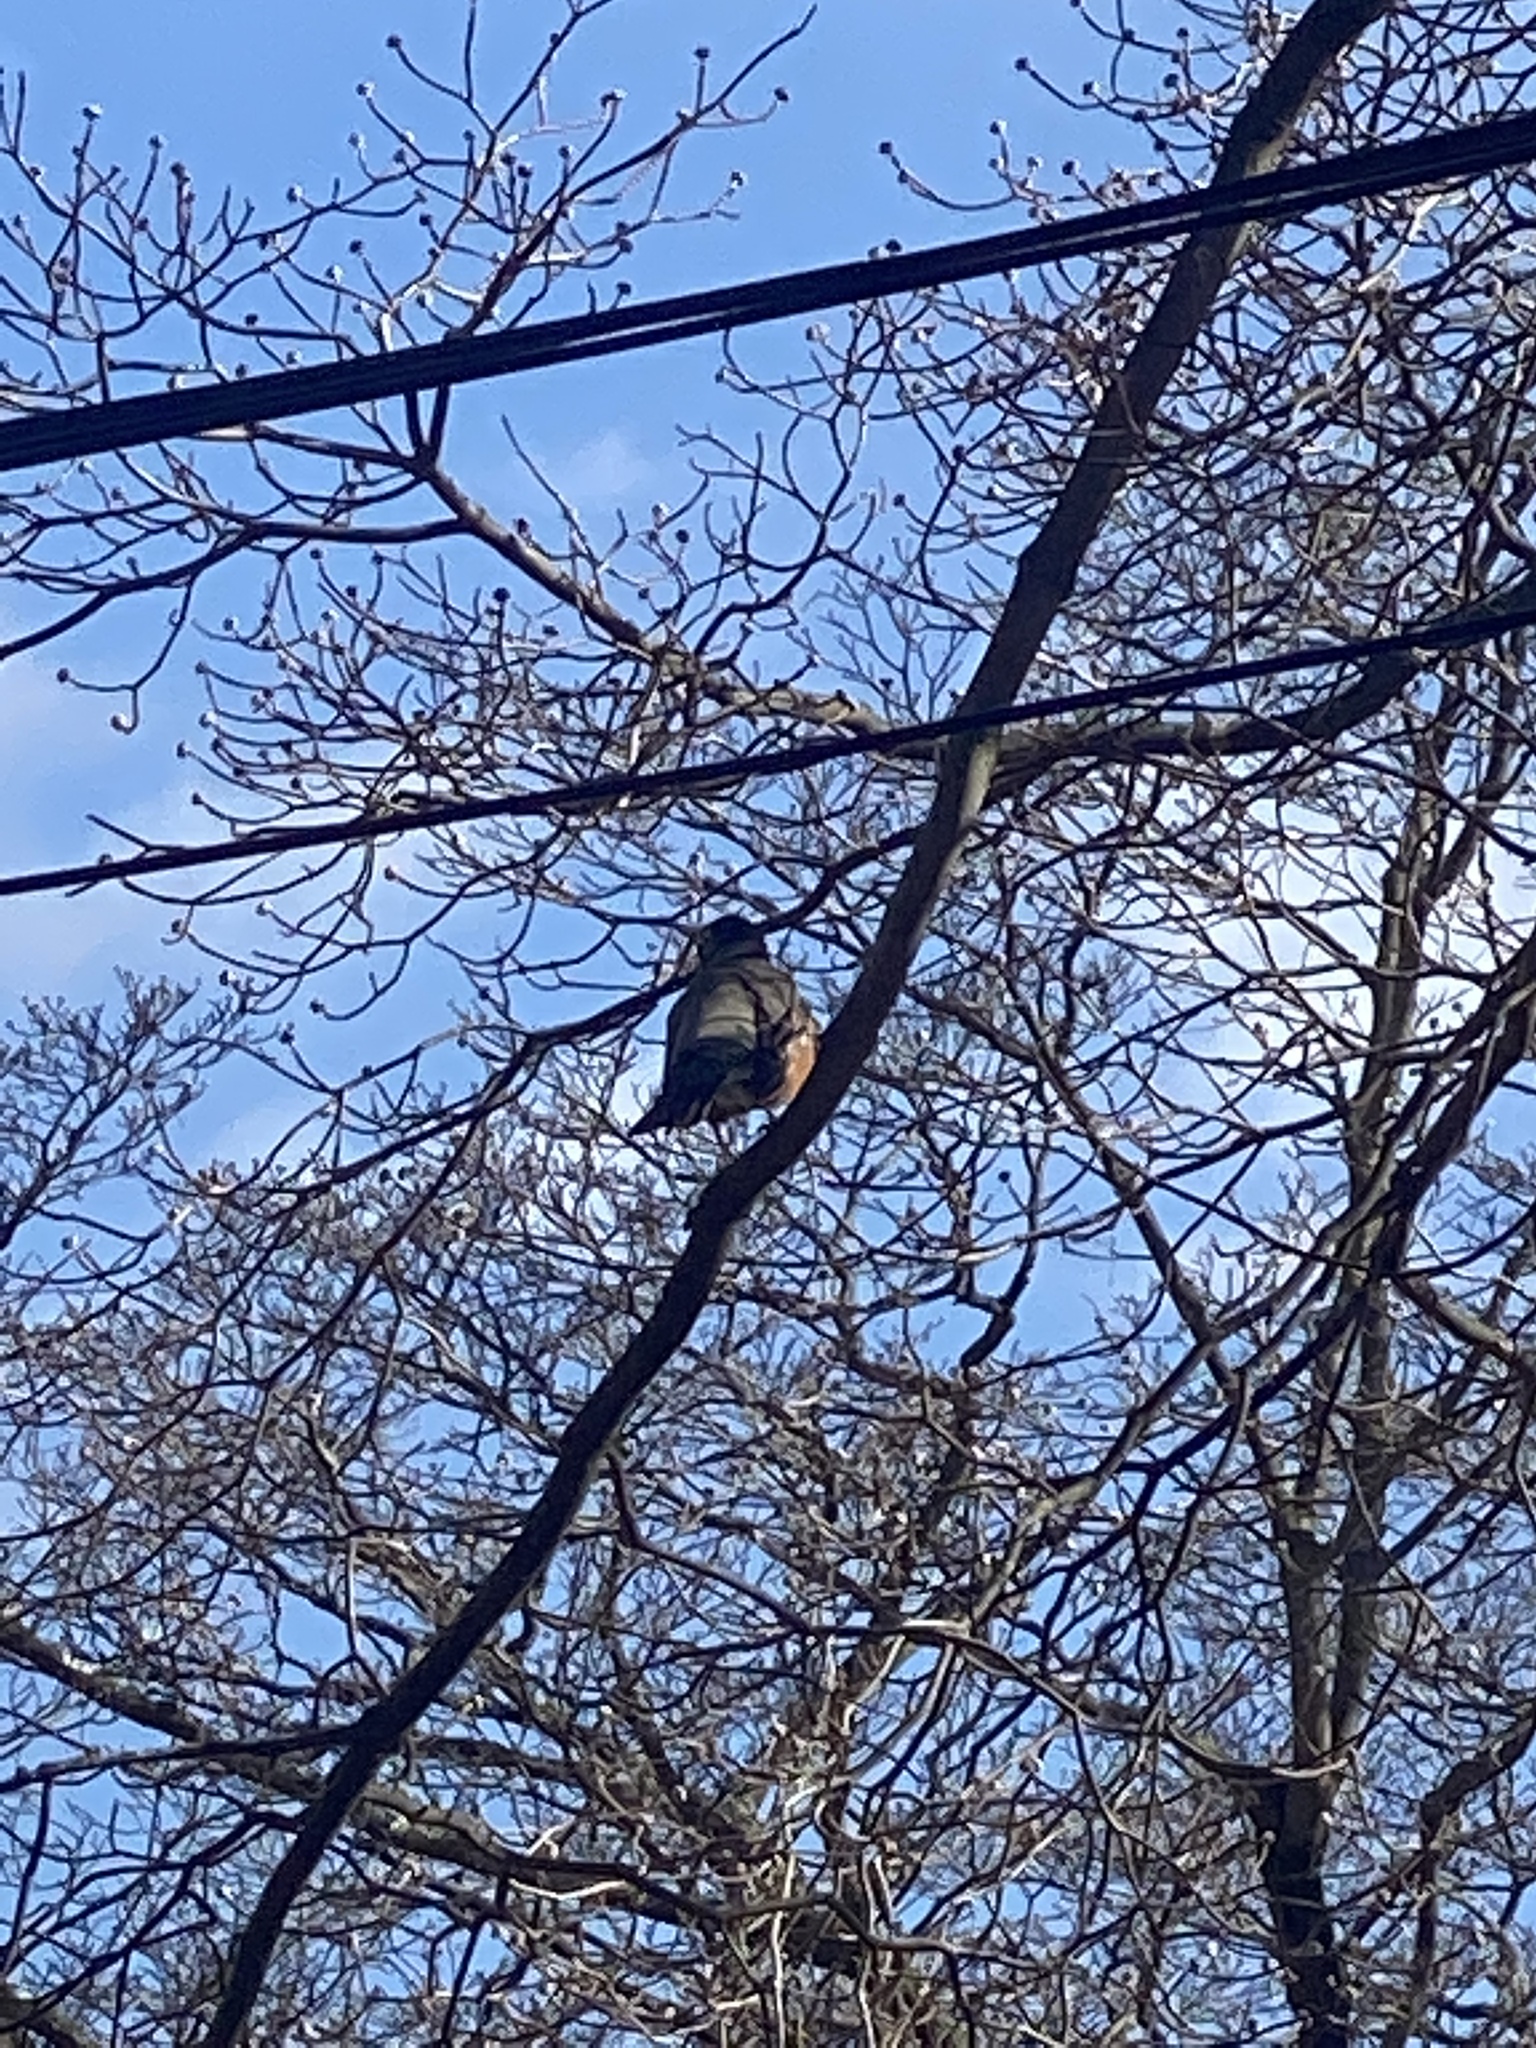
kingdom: Animalia
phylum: Chordata
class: Aves
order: Passeriformes
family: Turdidae
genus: Turdus
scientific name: Turdus migratorius
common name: American robin
